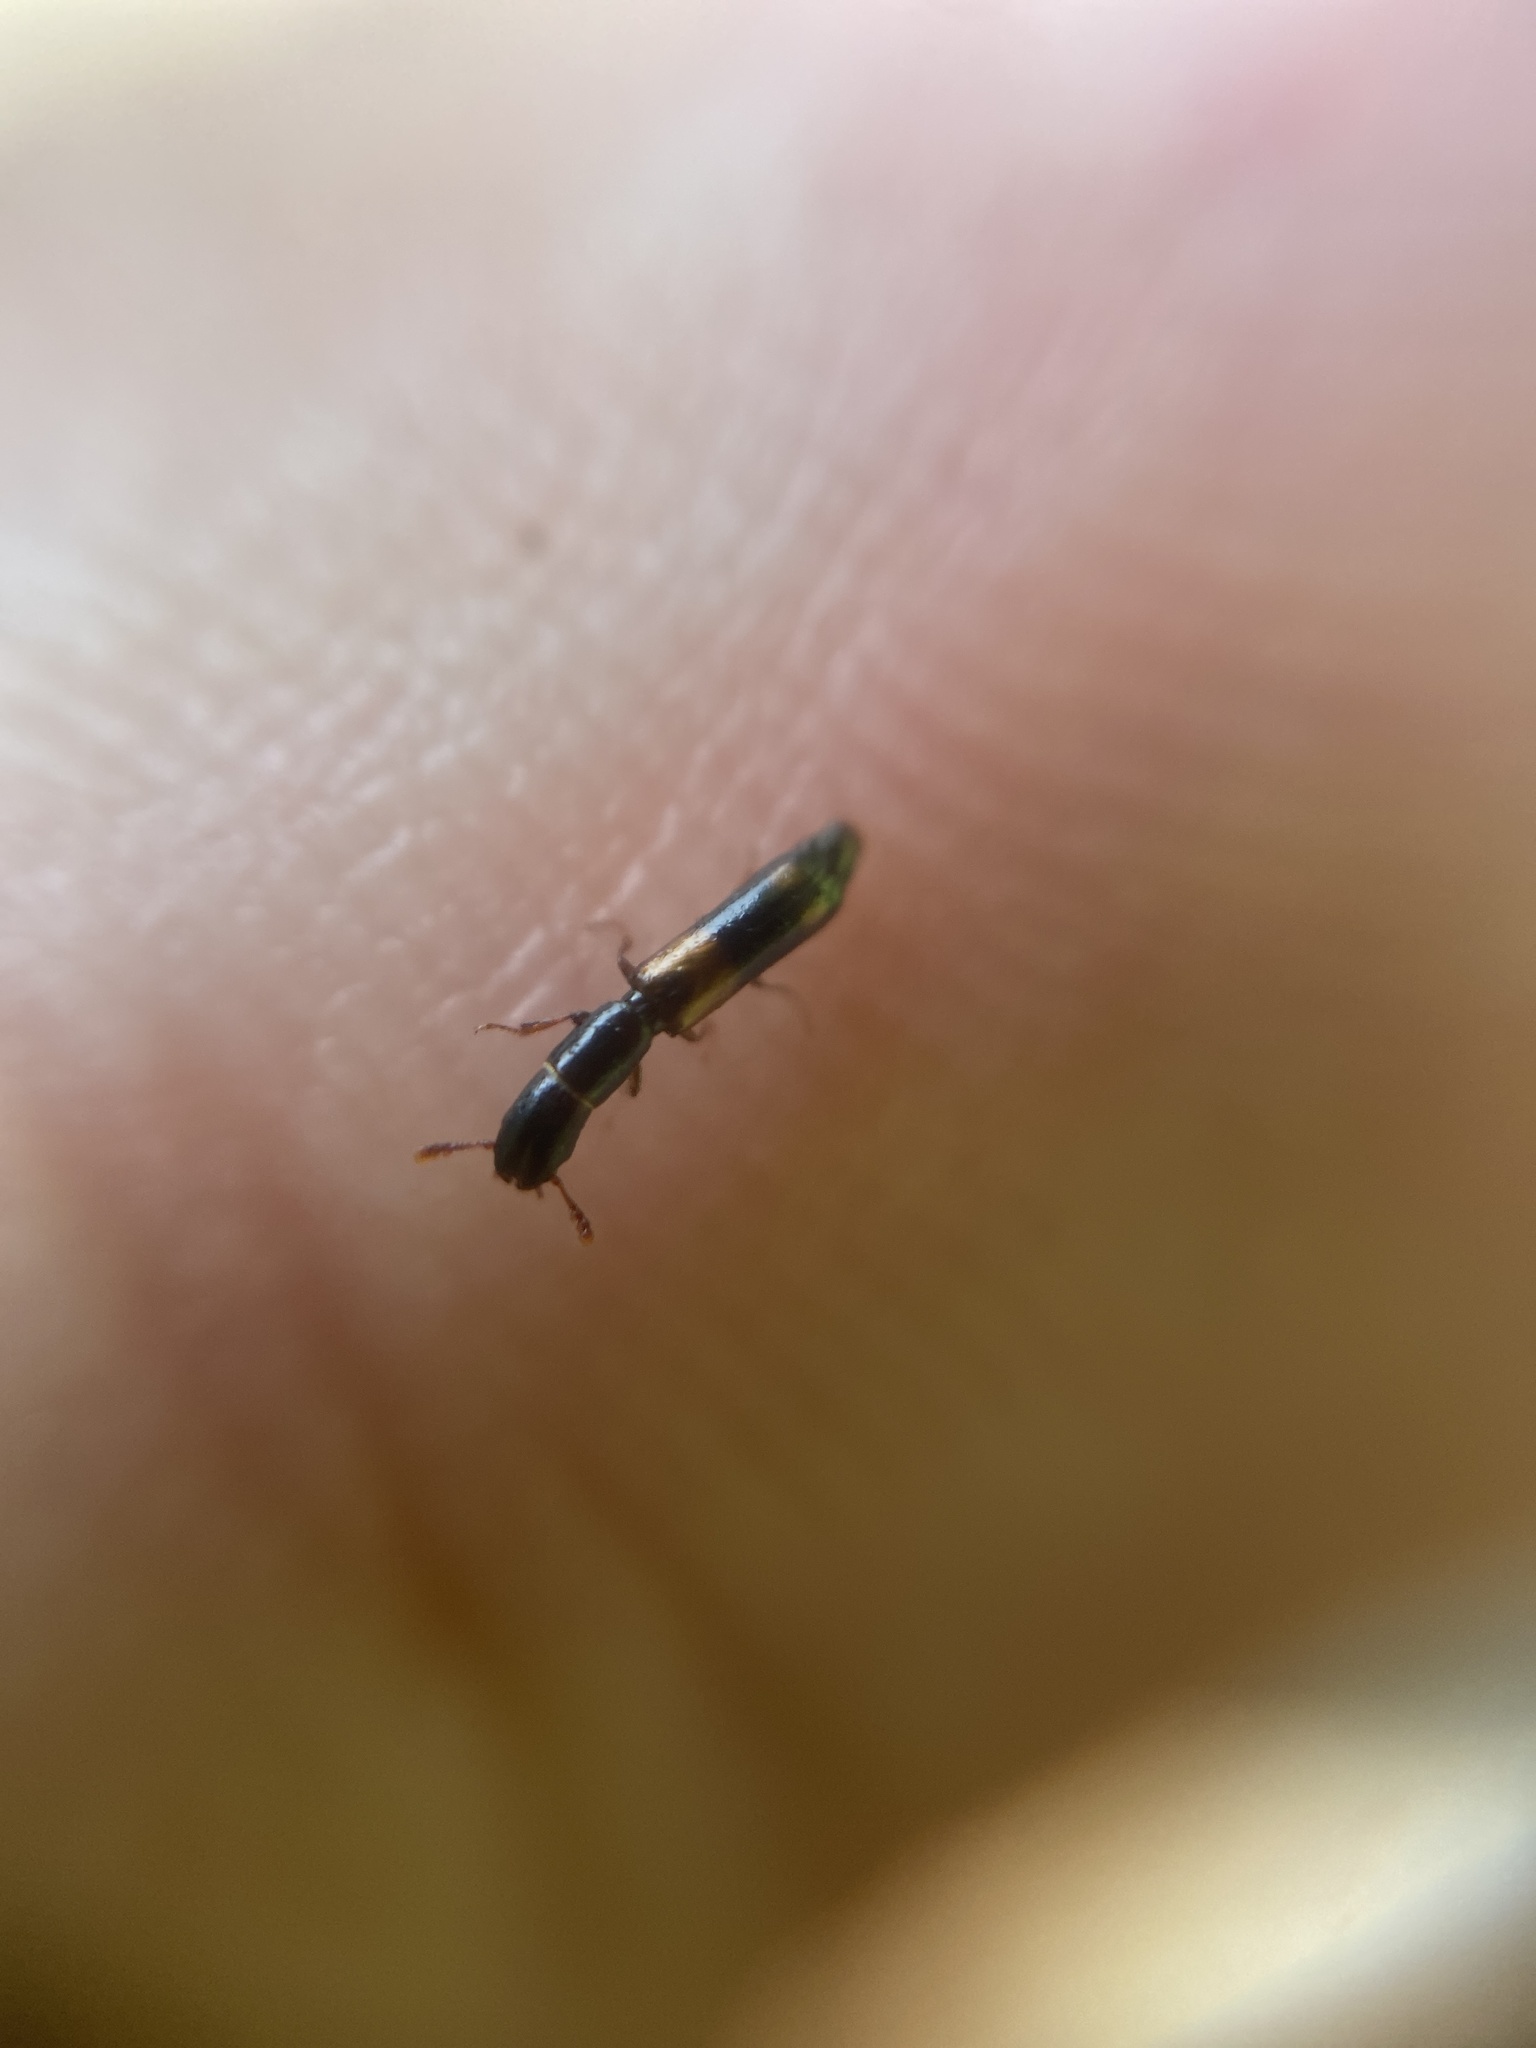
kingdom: Animalia
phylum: Arthropoda
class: Insecta
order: Coleoptera
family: Trogossitidae
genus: Nemozoma
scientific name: Nemozoma elongatum
